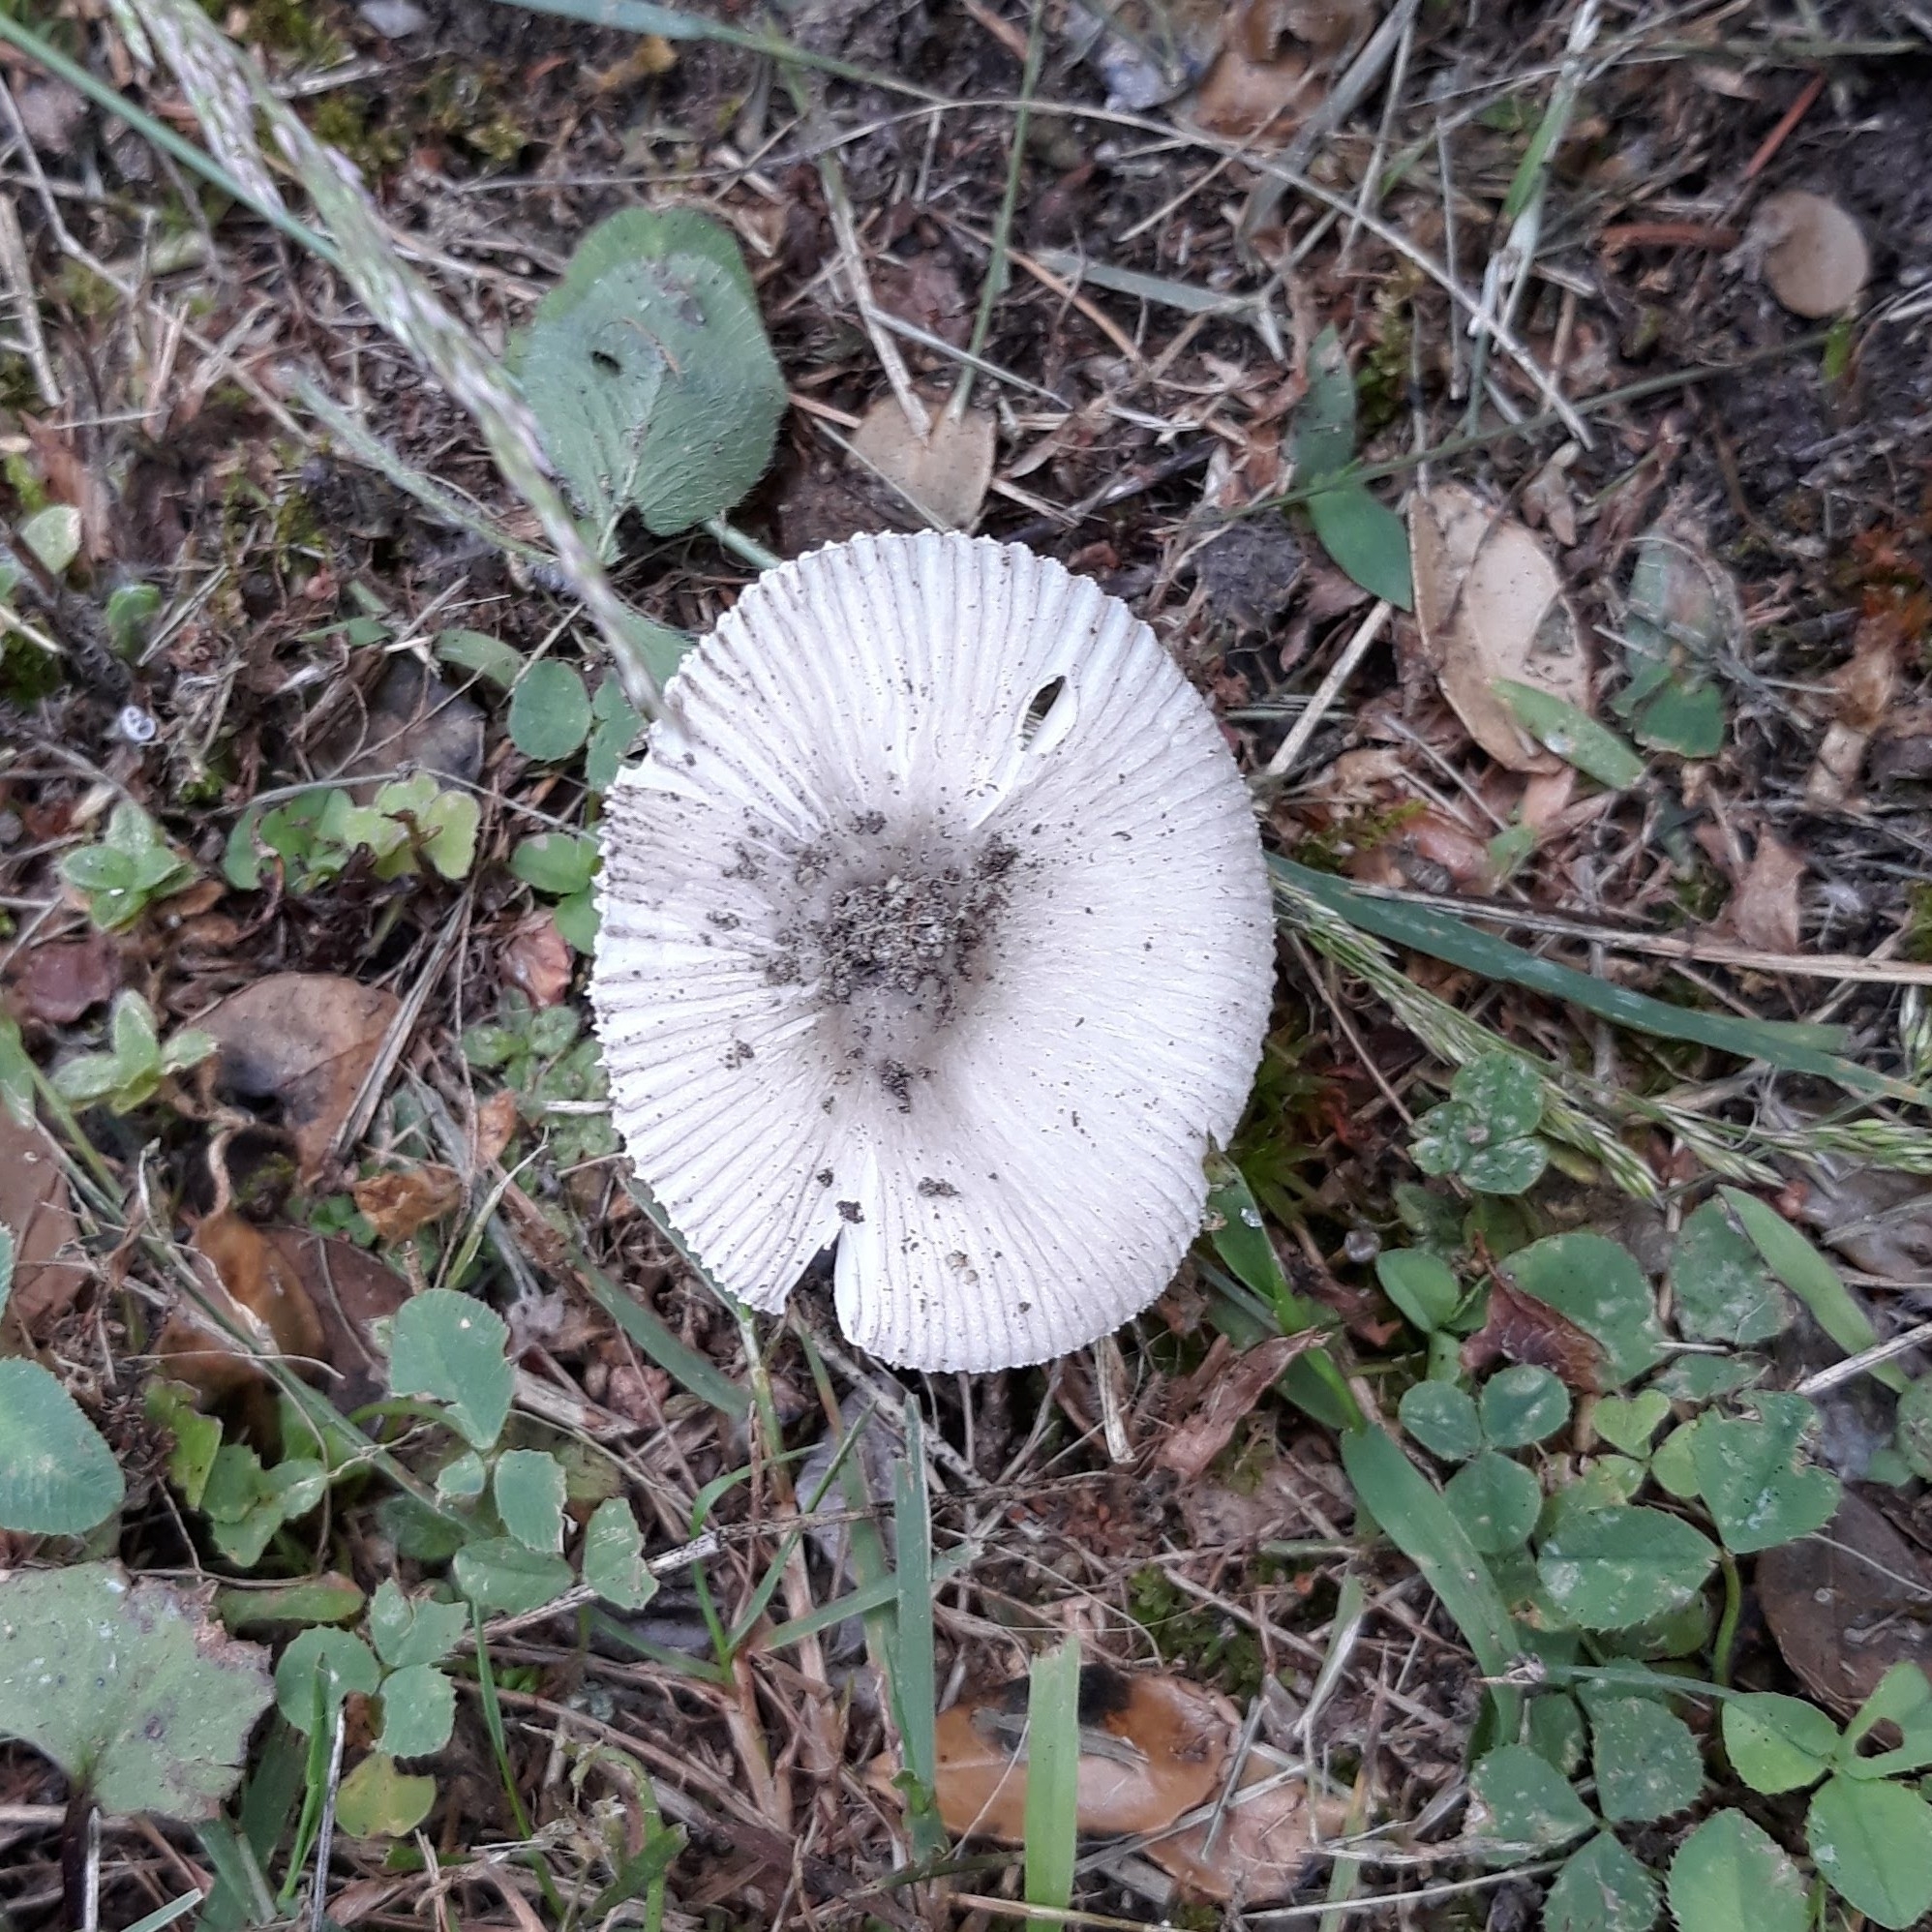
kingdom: Fungi
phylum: Basidiomycota
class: Agaricomycetes
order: Agaricales
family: Amanitaceae
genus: Amanita
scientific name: Amanita
